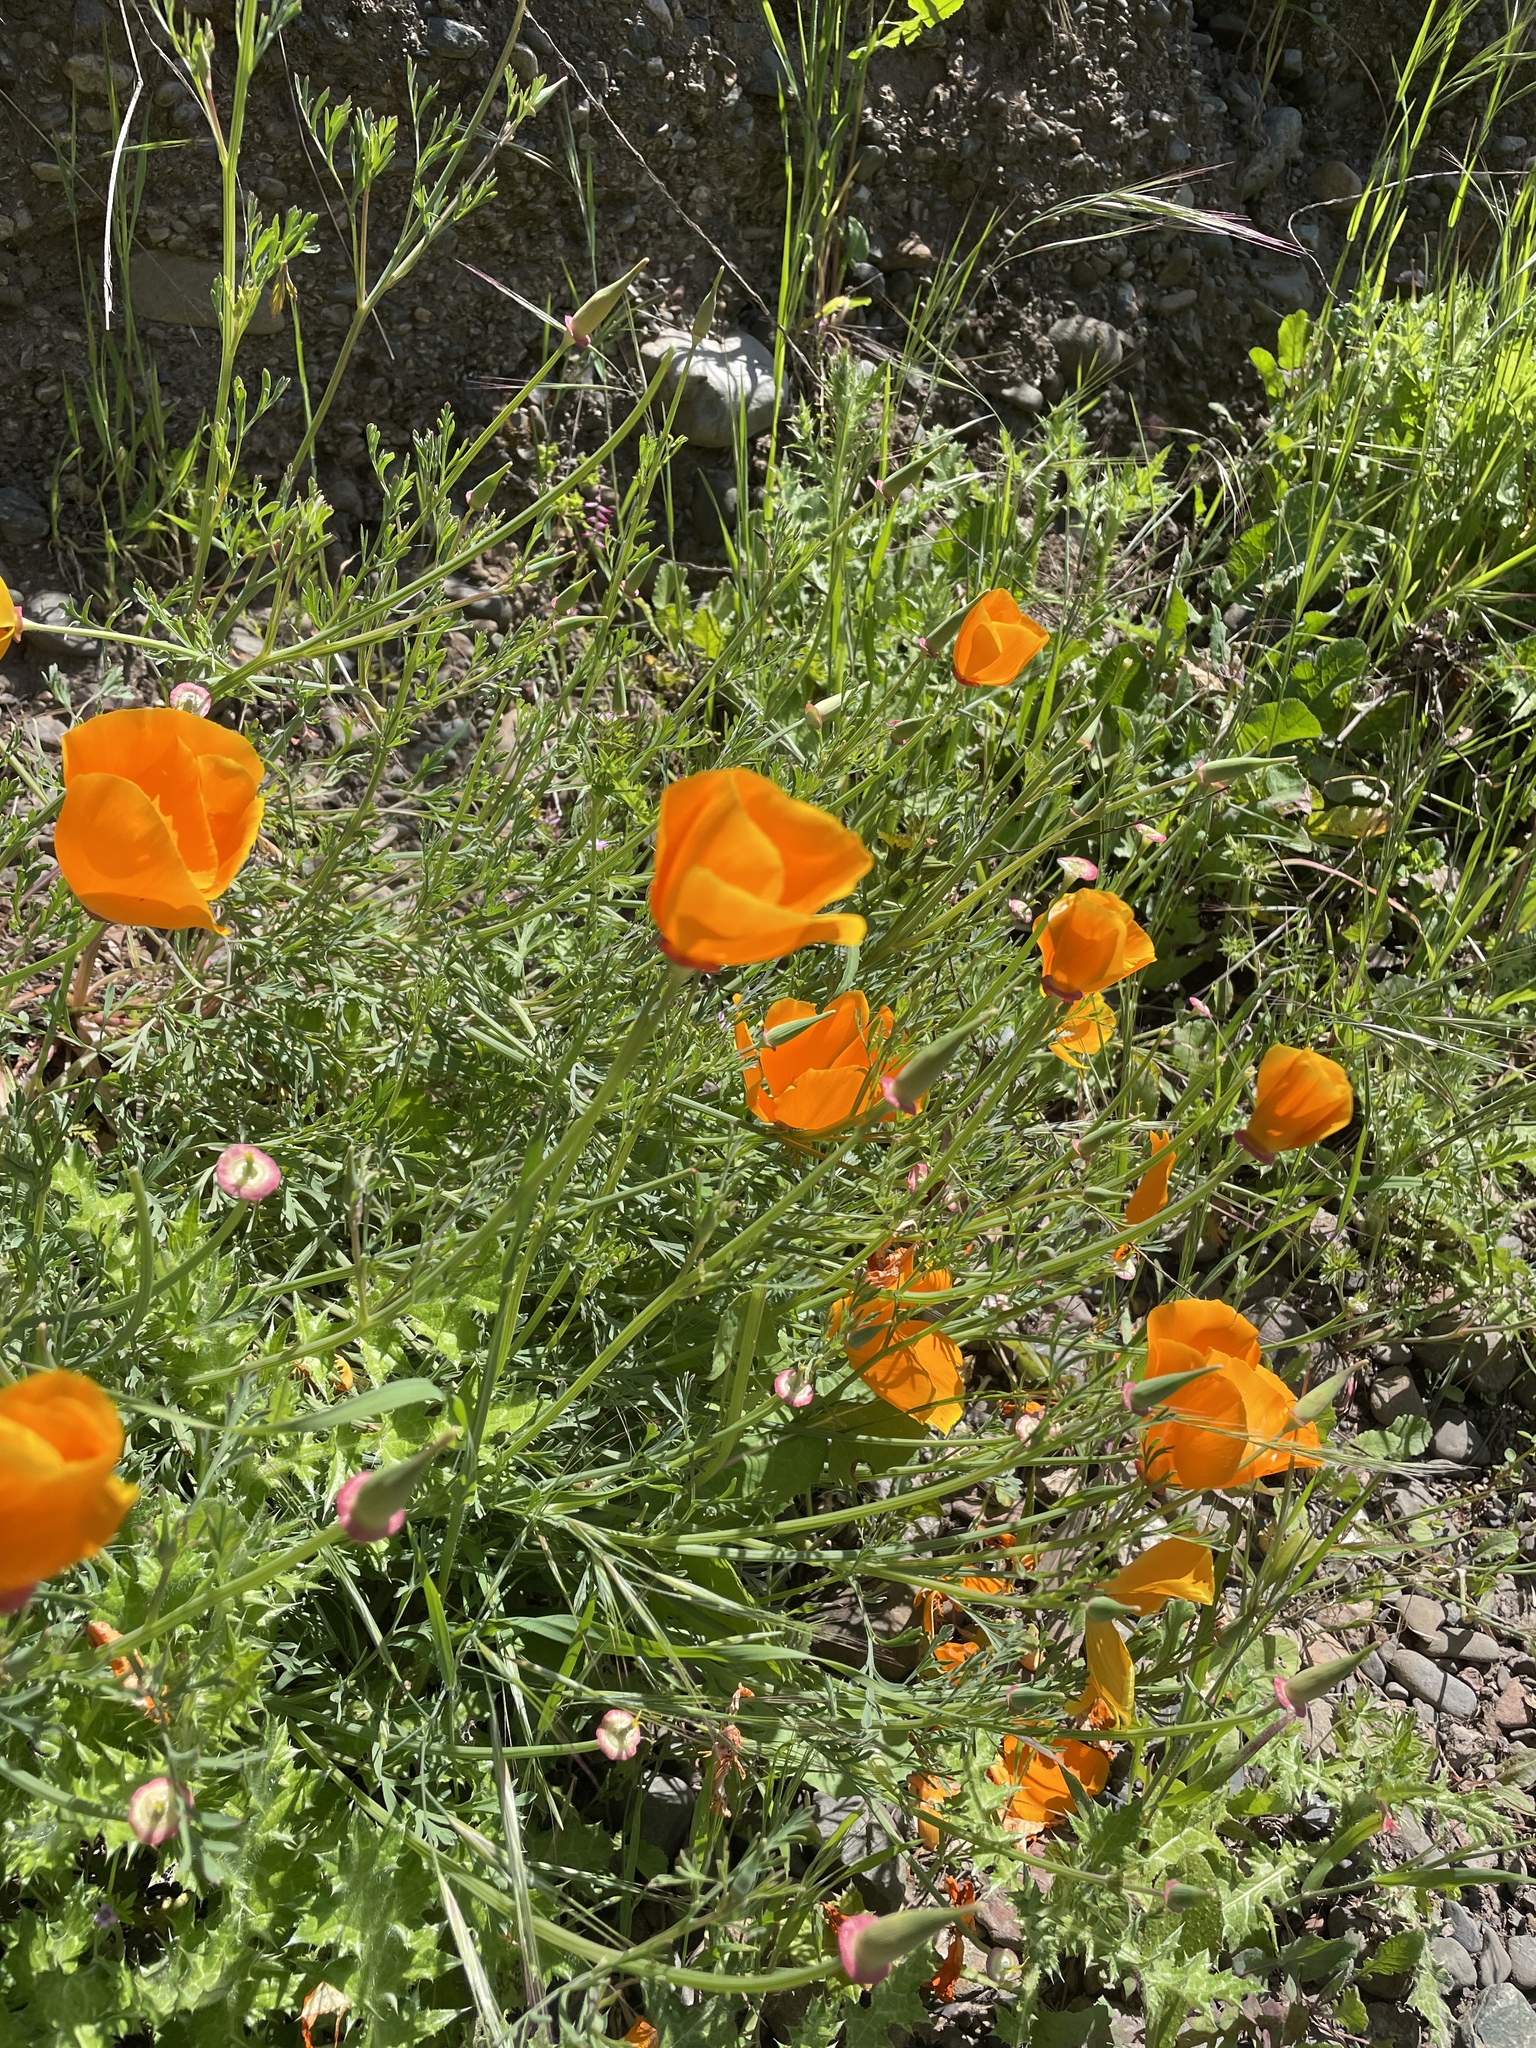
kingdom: Plantae
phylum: Tracheophyta
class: Magnoliopsida
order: Ranunculales
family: Papaveraceae
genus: Eschscholzia
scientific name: Eschscholzia californica
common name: California poppy
